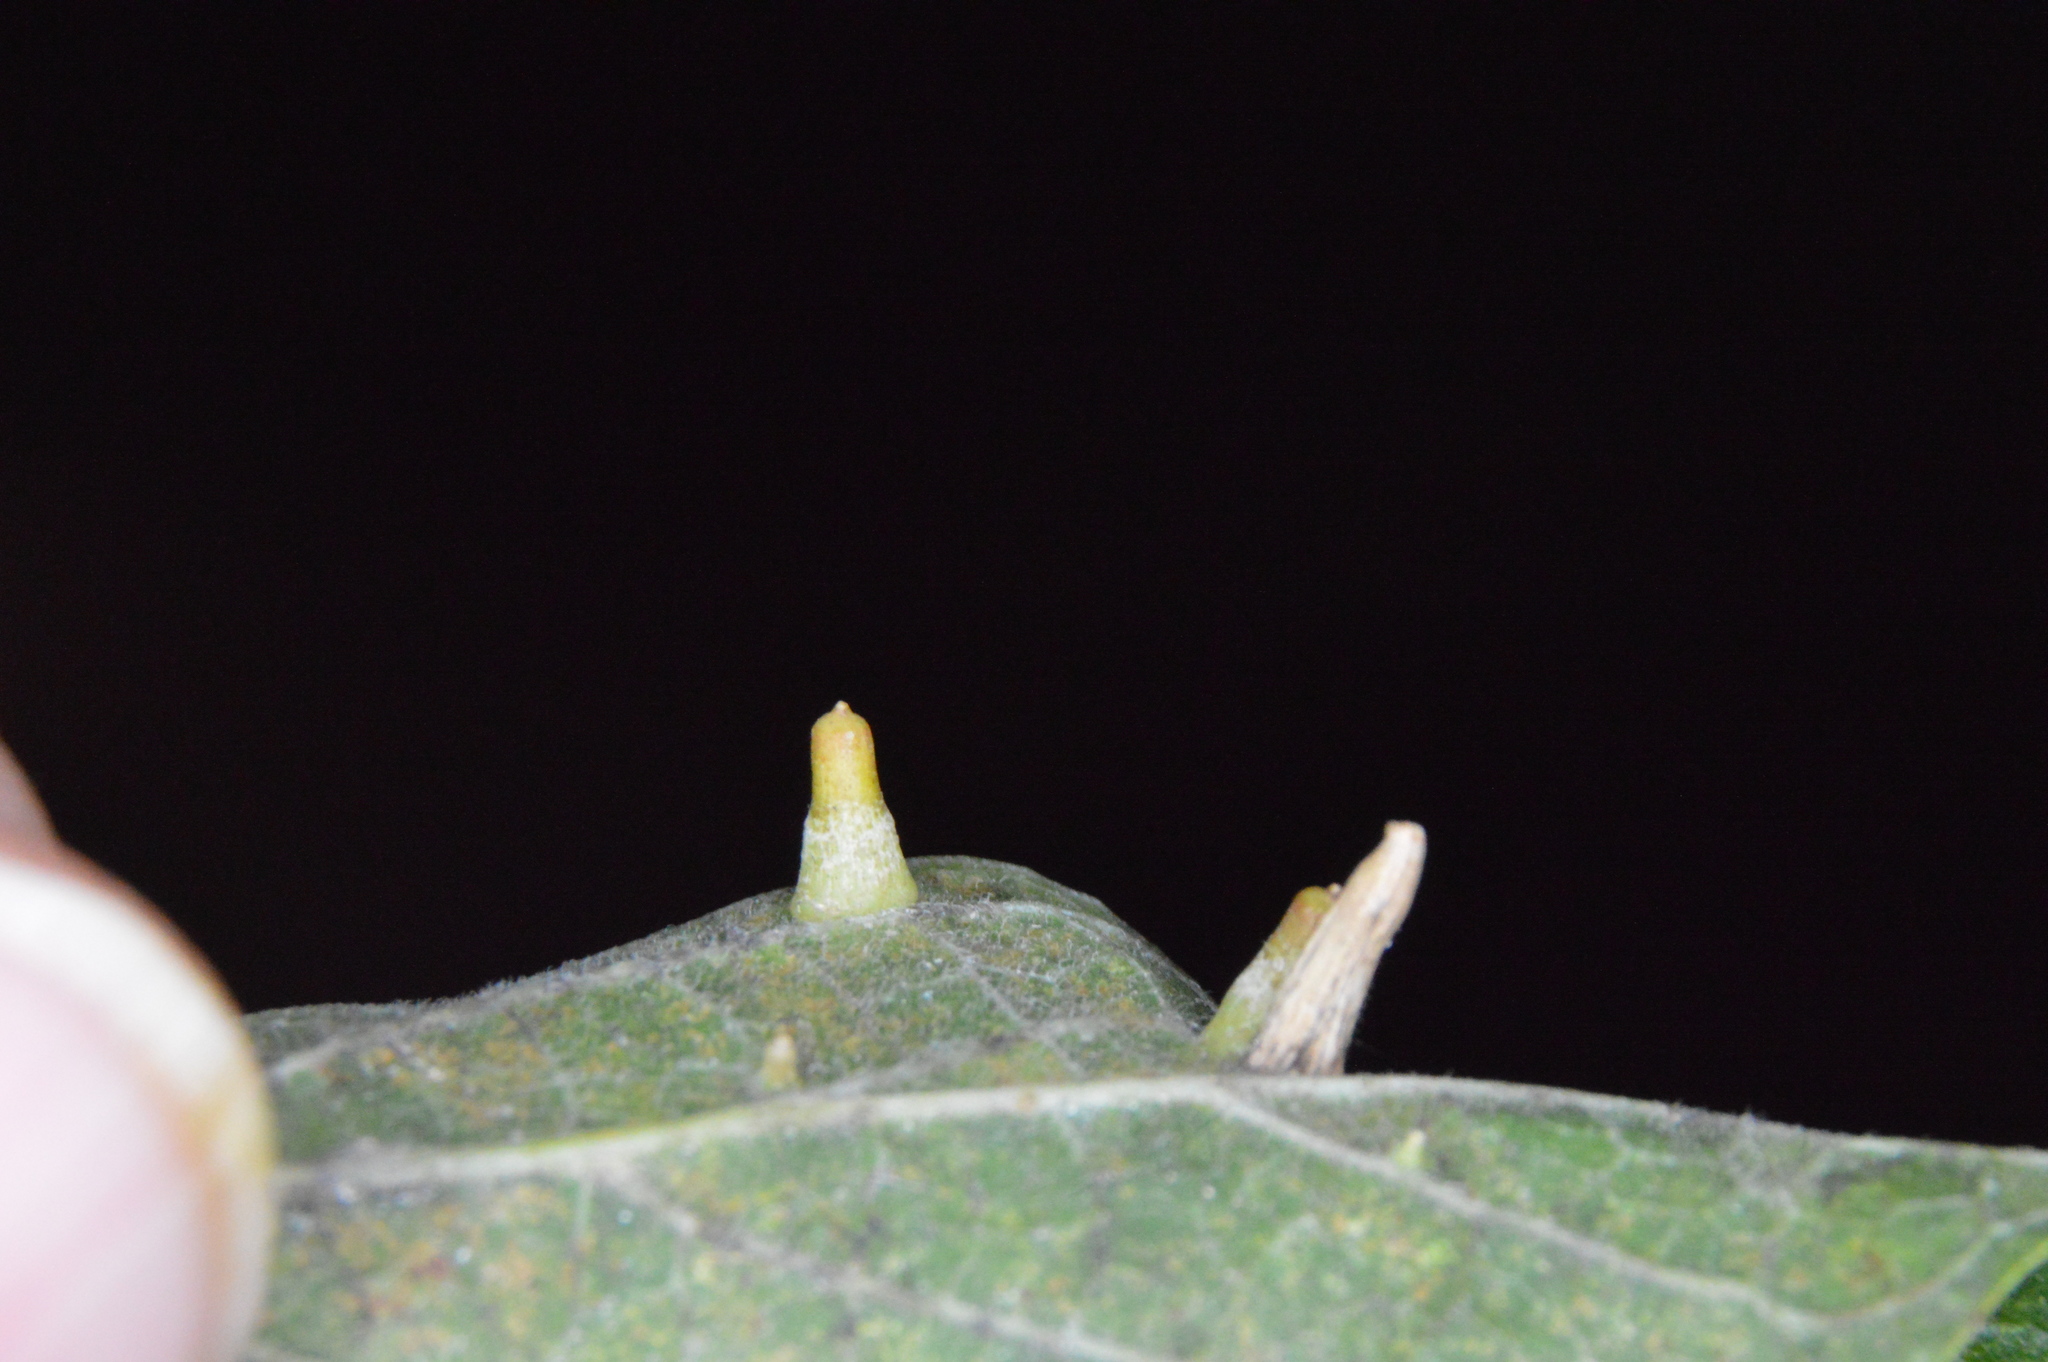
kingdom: Animalia
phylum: Arthropoda
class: Insecta
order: Diptera
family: Cecidomyiidae
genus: Celticecis
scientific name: Celticecis aciculata
